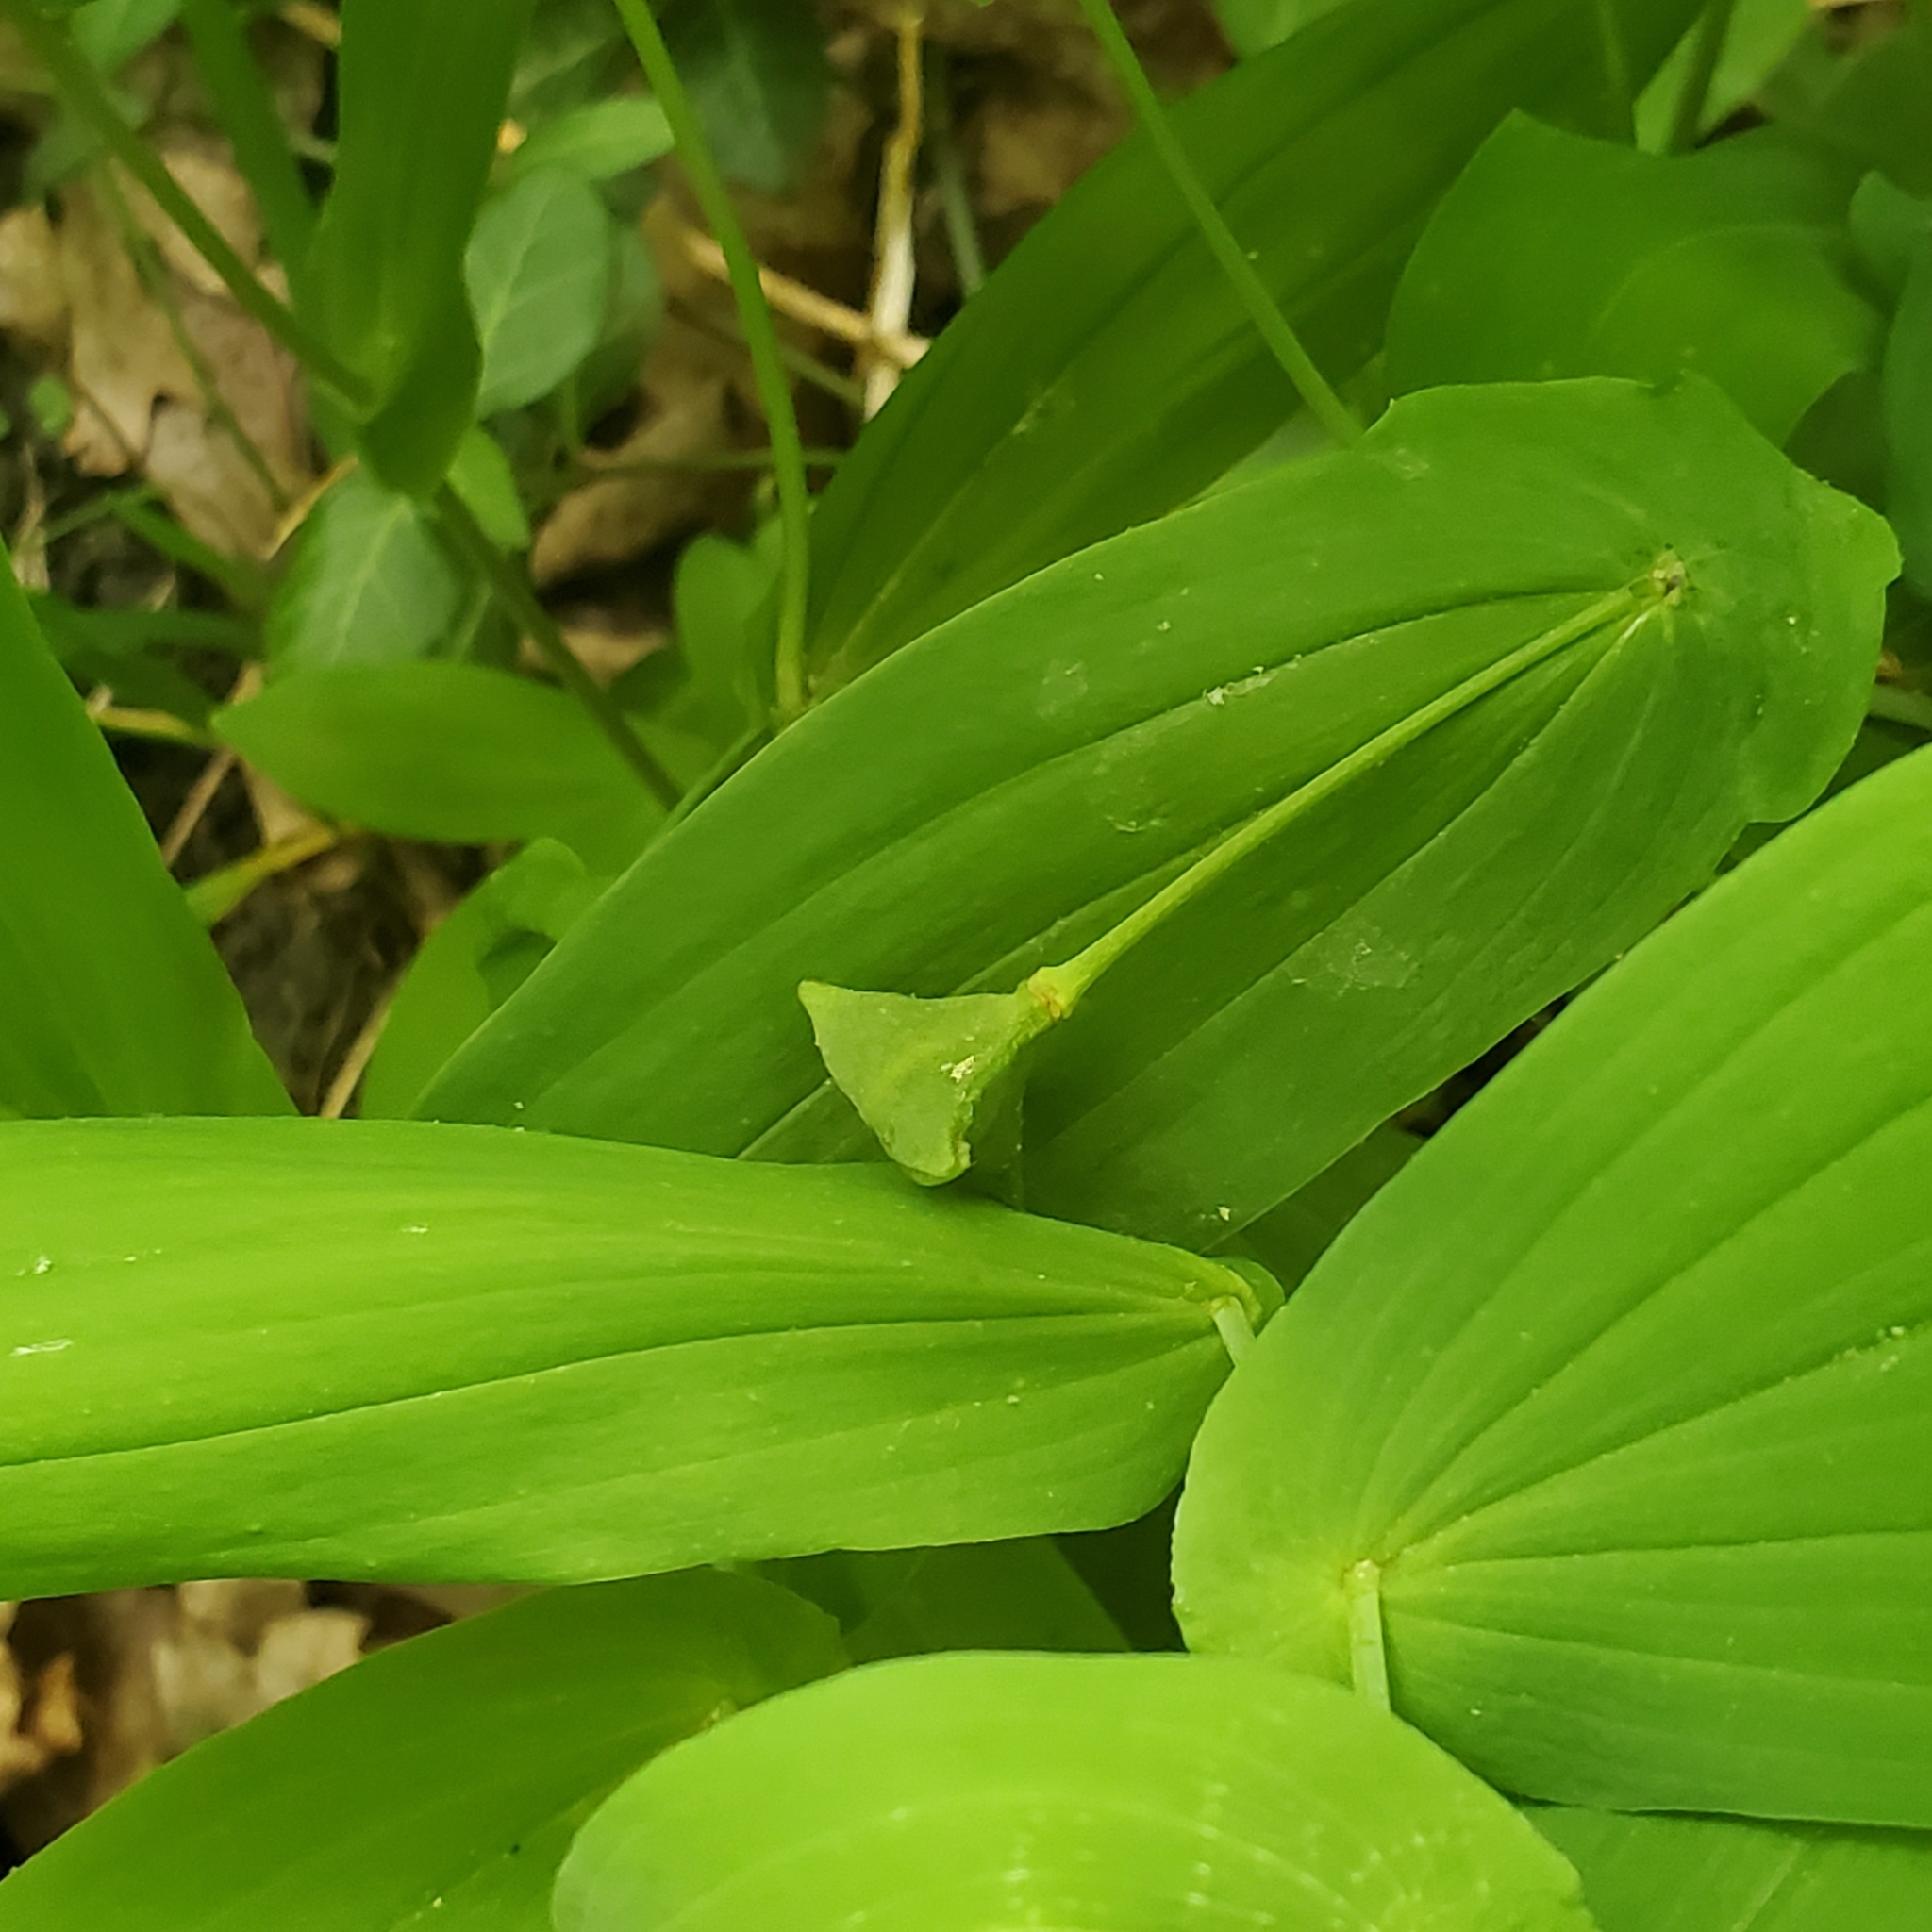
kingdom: Plantae
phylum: Tracheophyta
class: Liliopsida
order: Liliales
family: Colchicaceae
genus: Uvularia
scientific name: Uvularia grandiflora
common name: Bellwort
